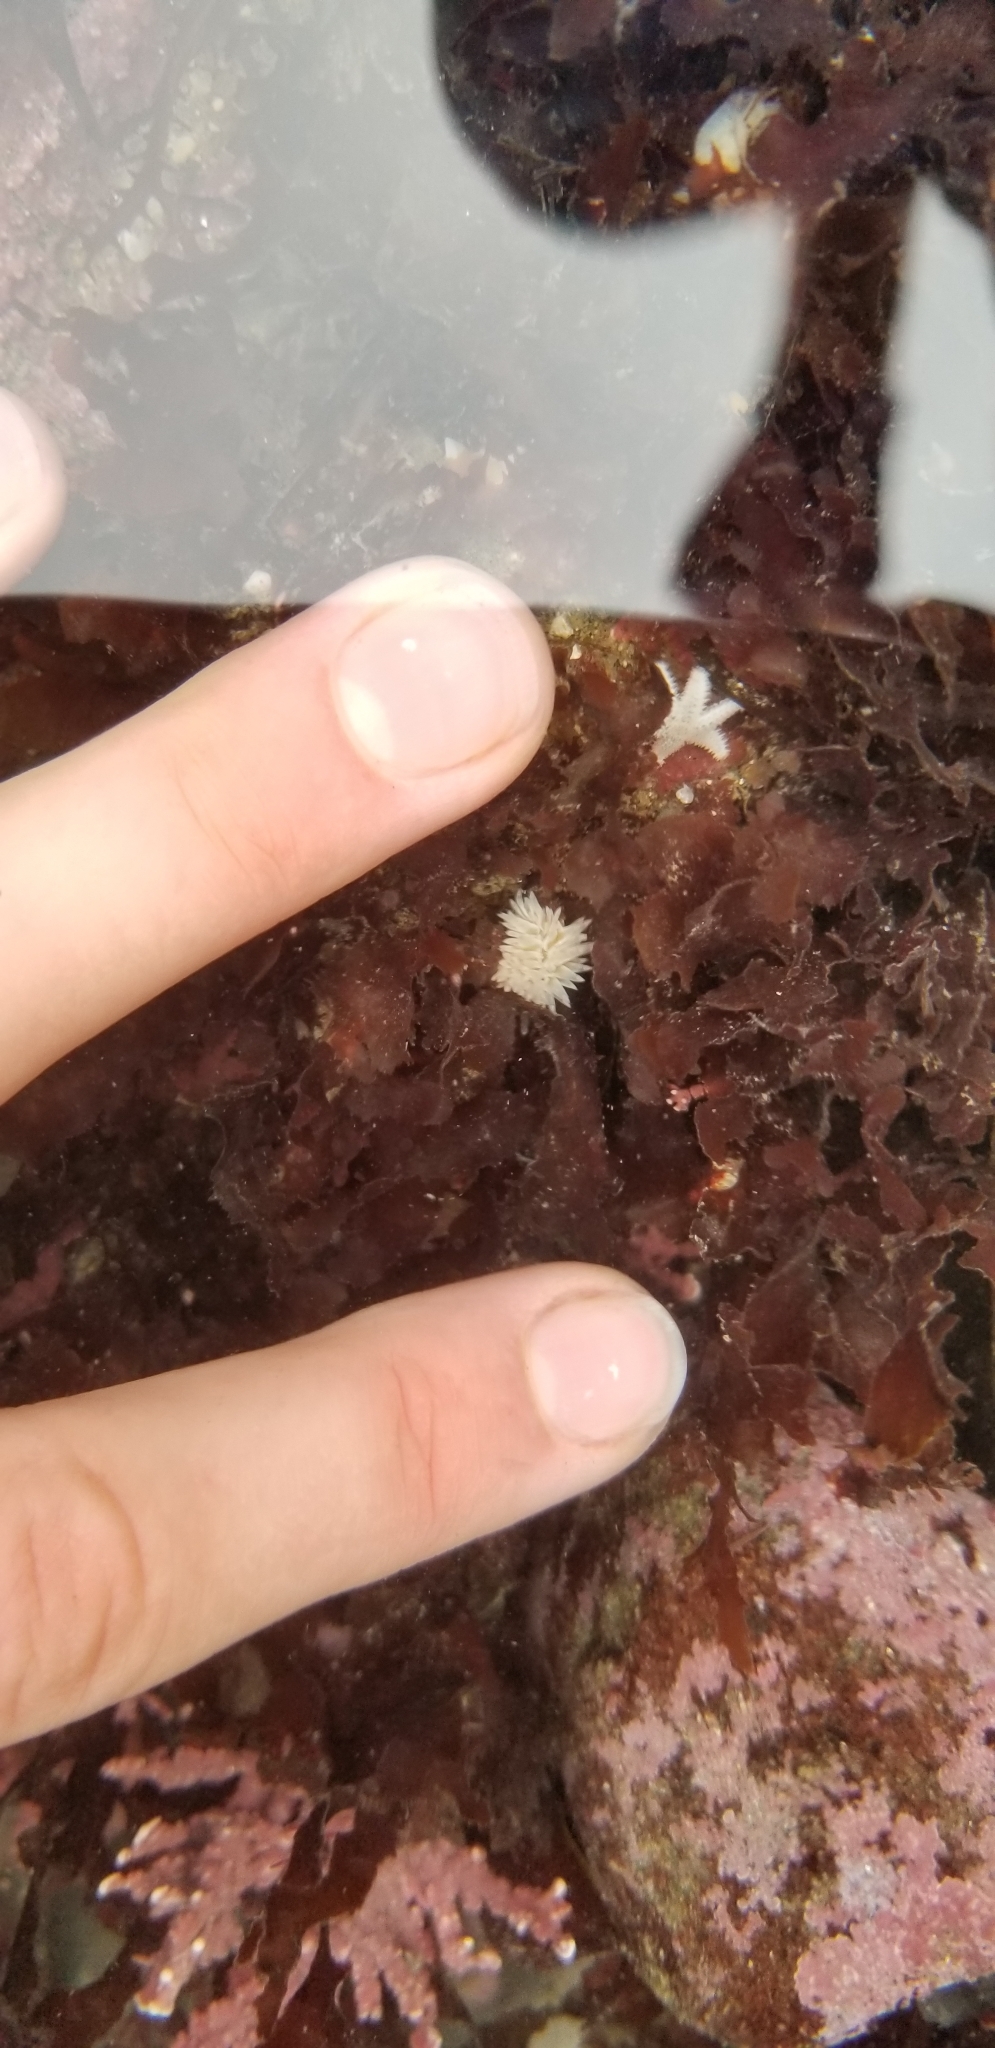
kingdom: Animalia
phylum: Mollusca
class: Gastropoda
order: Nudibranchia
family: Aeolidiidae
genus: Aeolidia
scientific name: Aeolidia loui
